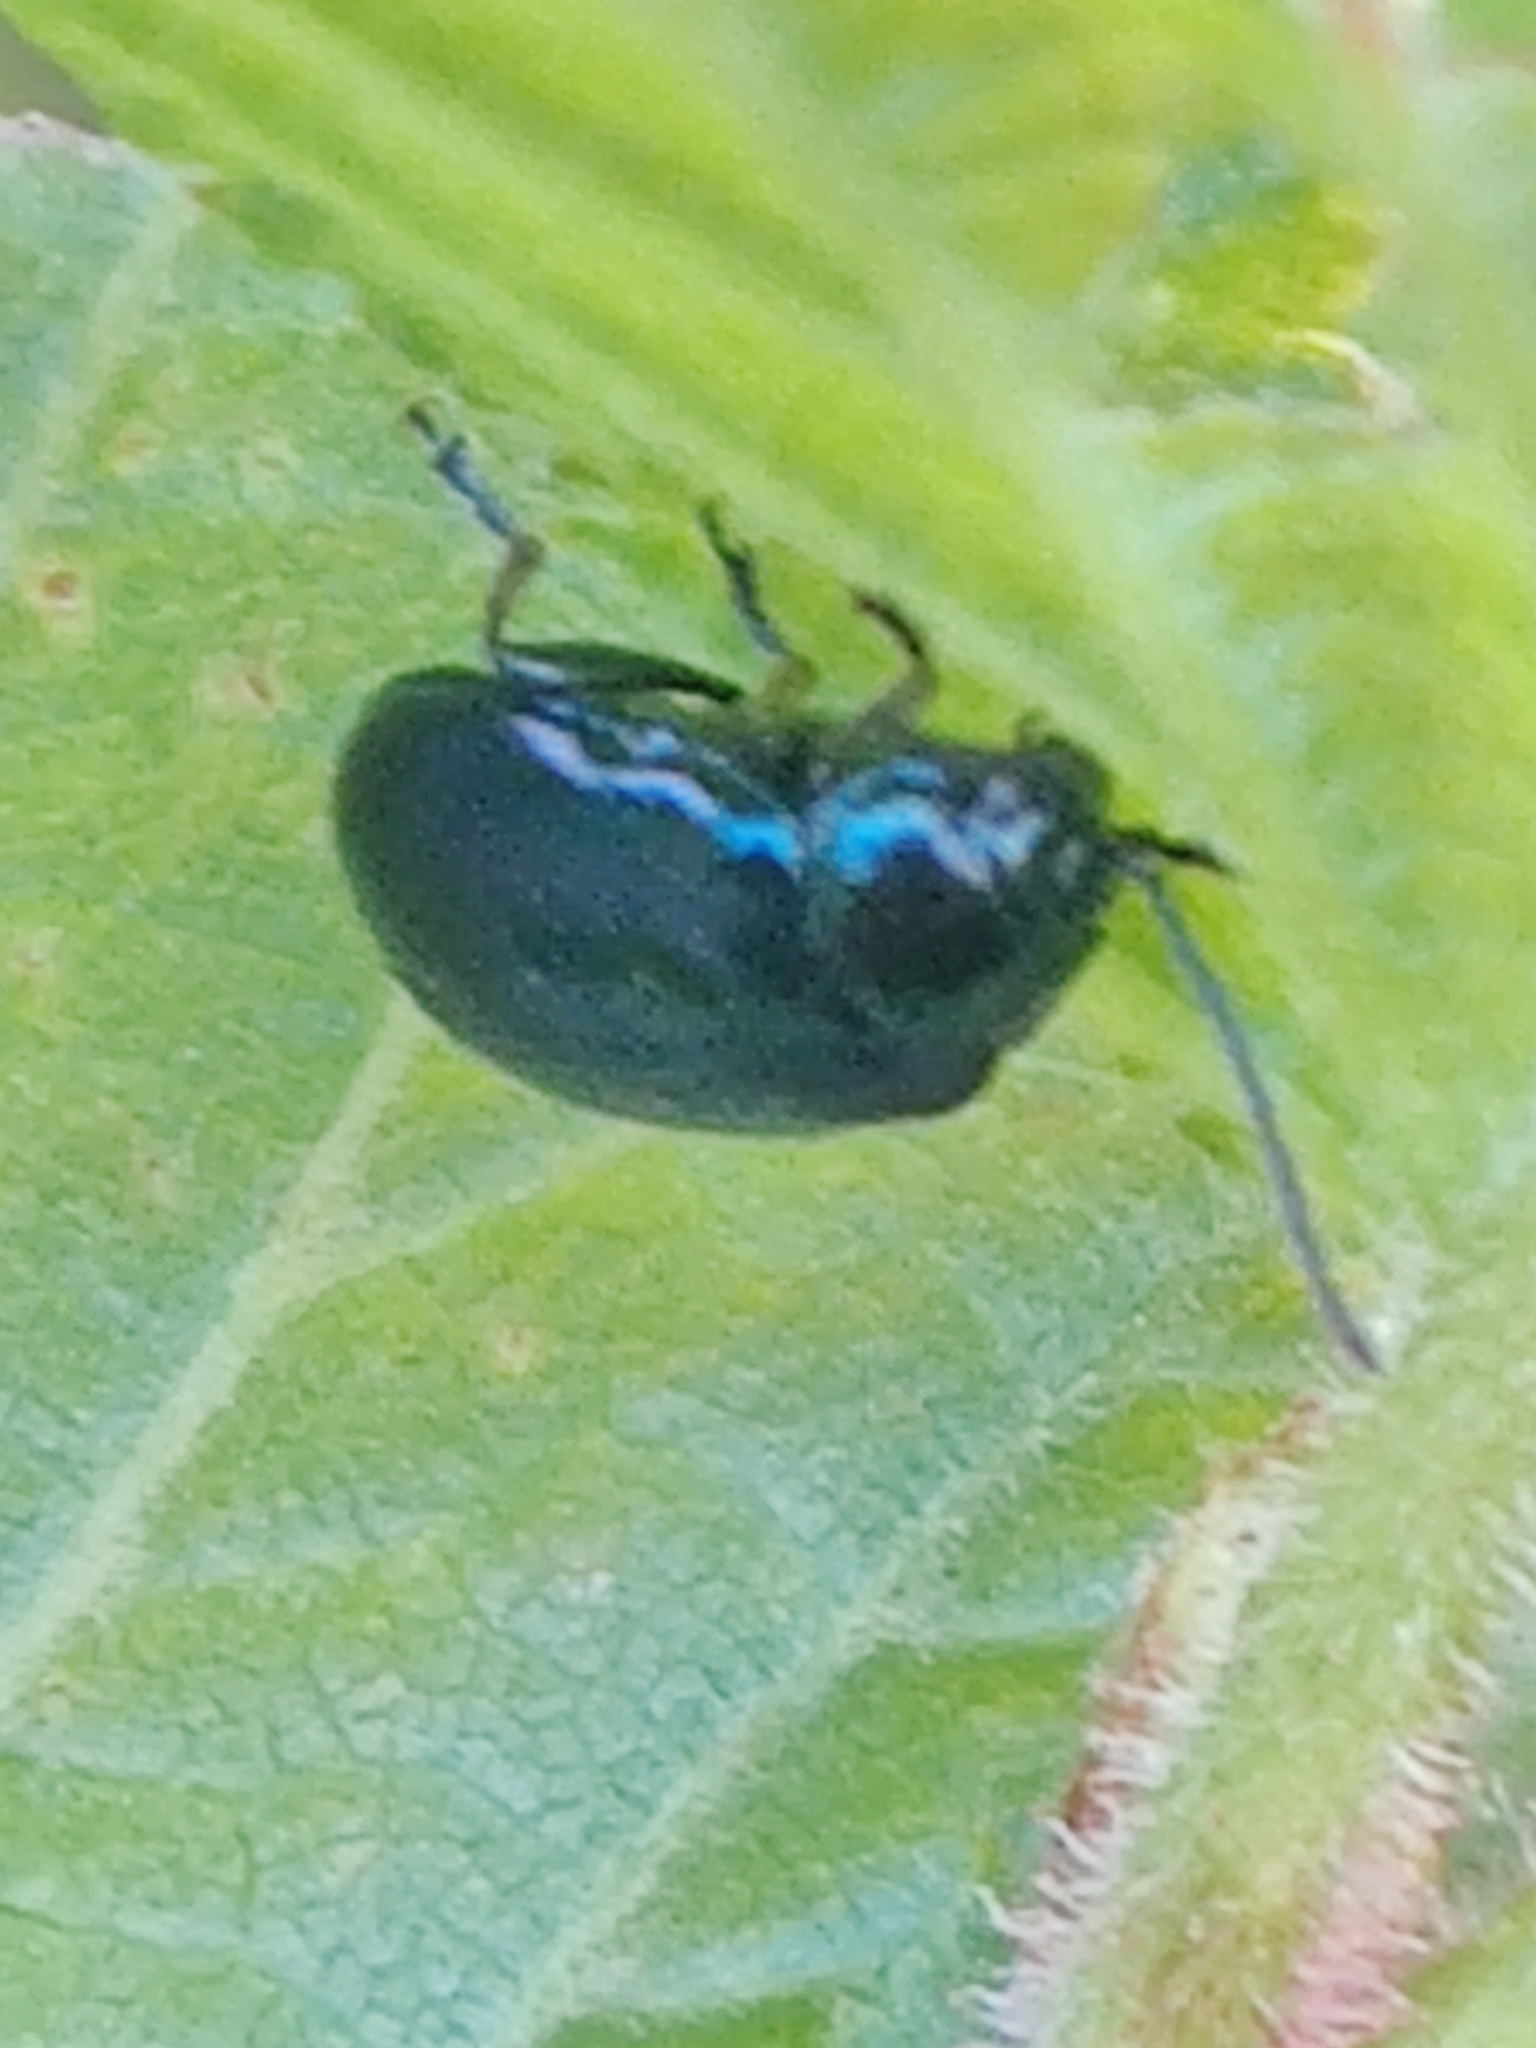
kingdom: Animalia
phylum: Arthropoda
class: Insecta
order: Coleoptera
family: Chrysomelidae
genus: Agelastica
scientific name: Agelastica alni
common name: Alder leaf beetle
